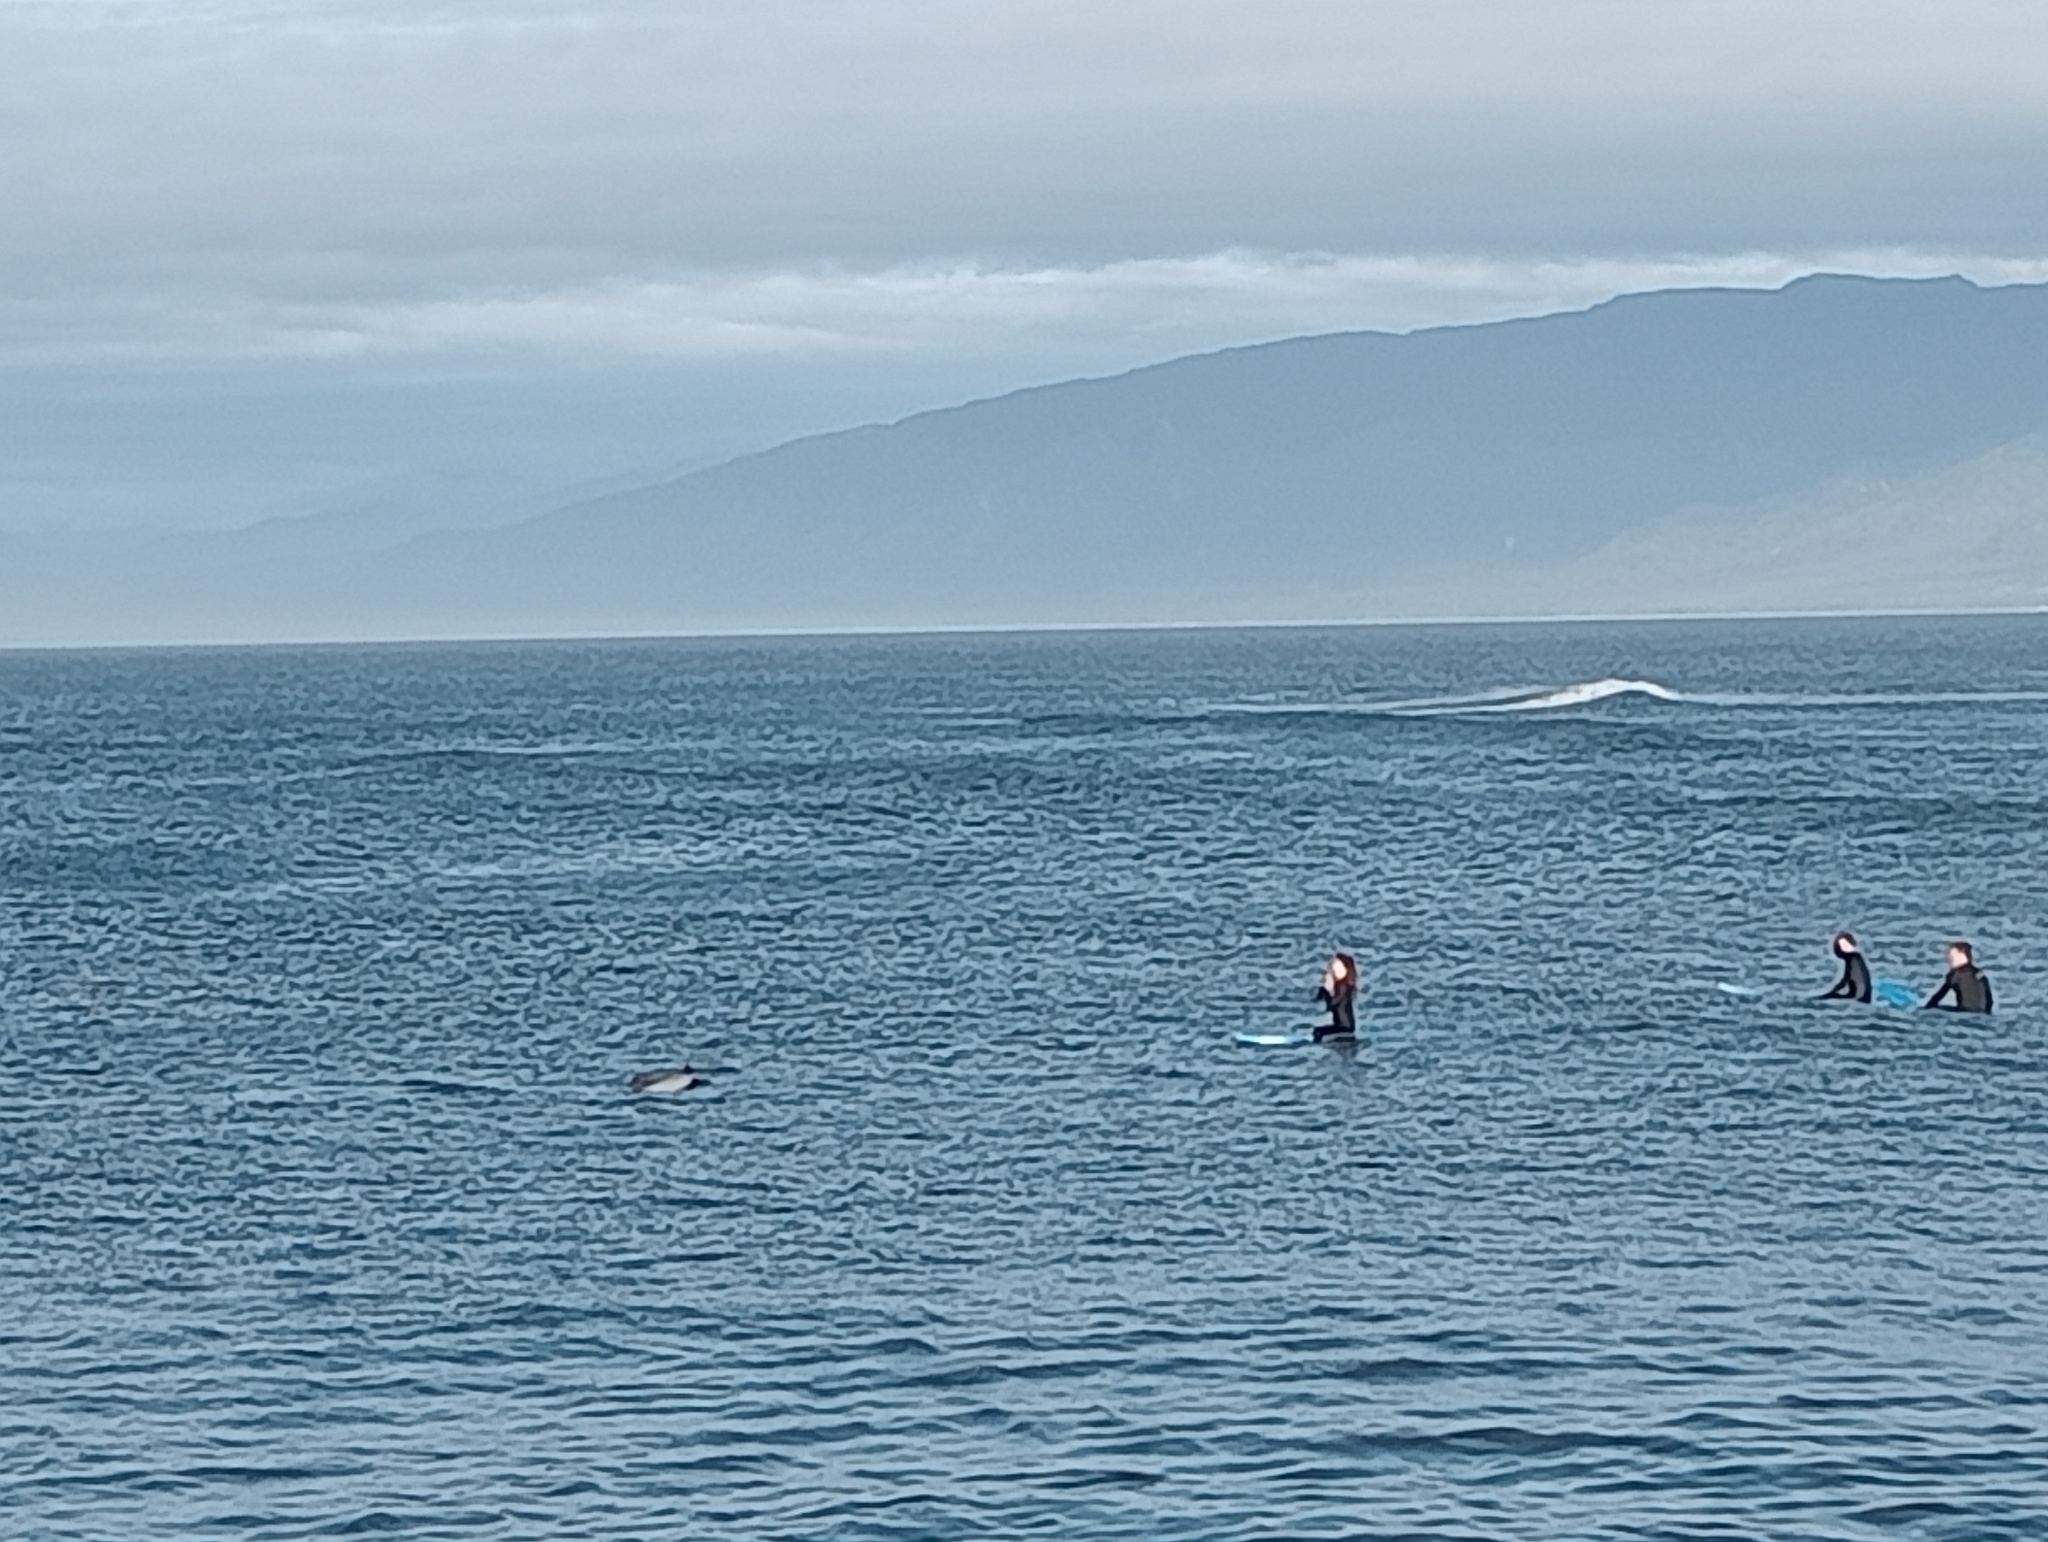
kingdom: Animalia
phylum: Chordata
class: Mammalia
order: Cetacea
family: Delphinidae
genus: Cephalorhynchus
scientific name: Cephalorhynchus hectori
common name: Hector's dolphin
